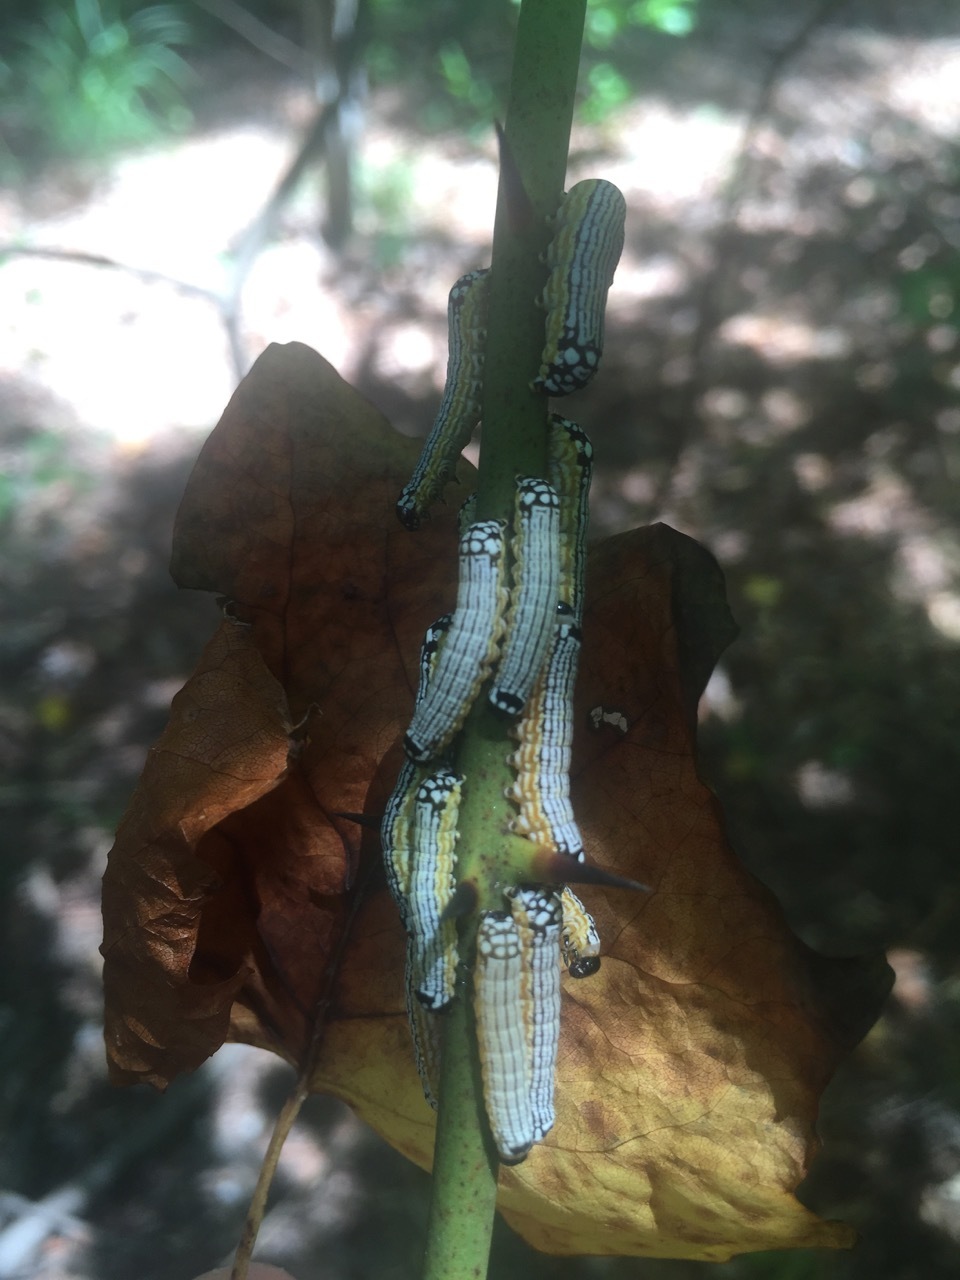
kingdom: Animalia
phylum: Arthropoda
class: Insecta
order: Lepidoptera
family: Noctuidae
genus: Phosphila
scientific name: Phosphila turbulenta
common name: Turbulent phosphila moth
